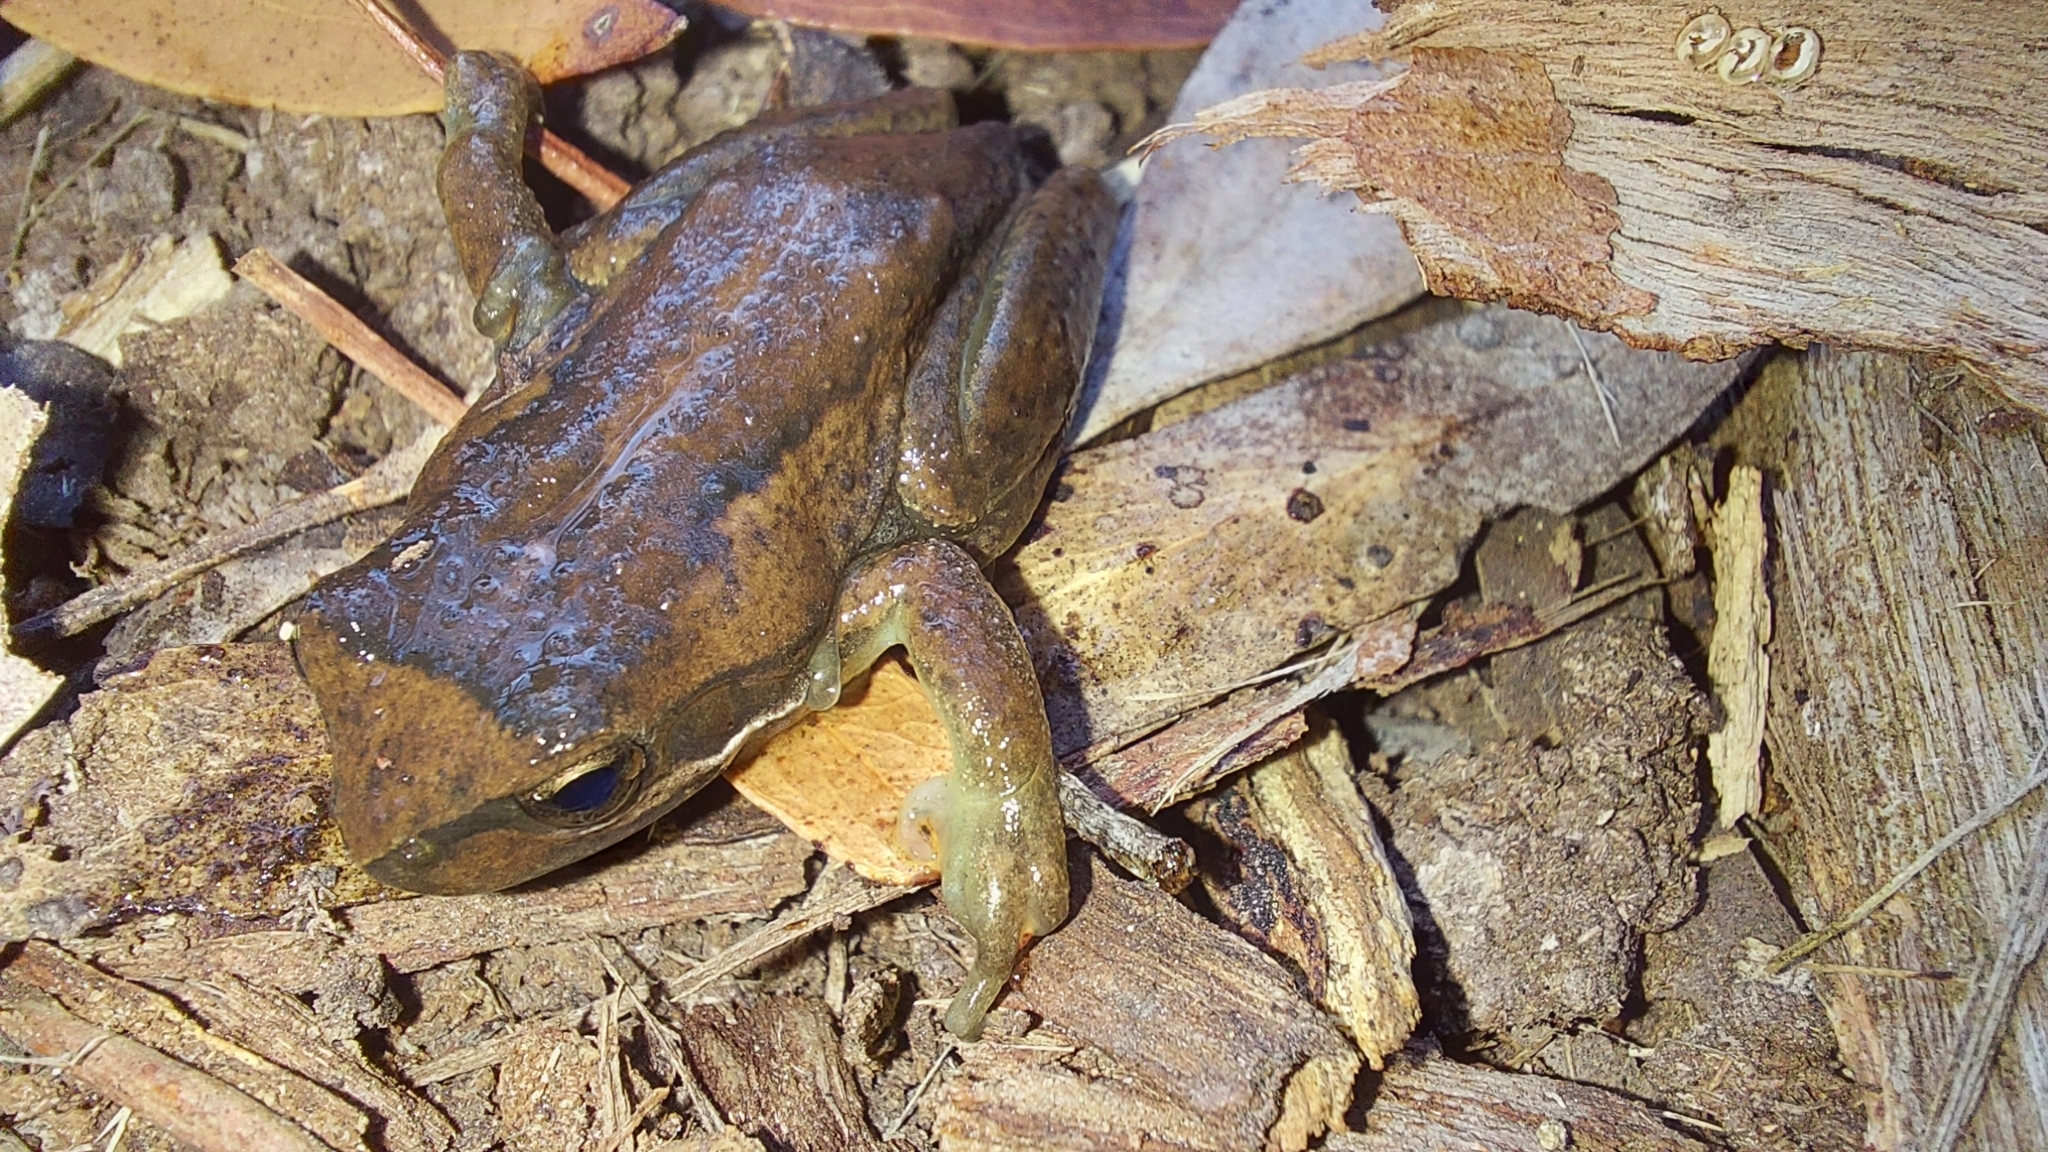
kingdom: Animalia
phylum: Chordata
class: Amphibia
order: Anura
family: Pelodryadidae
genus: Litoria
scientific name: Litoria ewingii
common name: Southern brown tree frog
